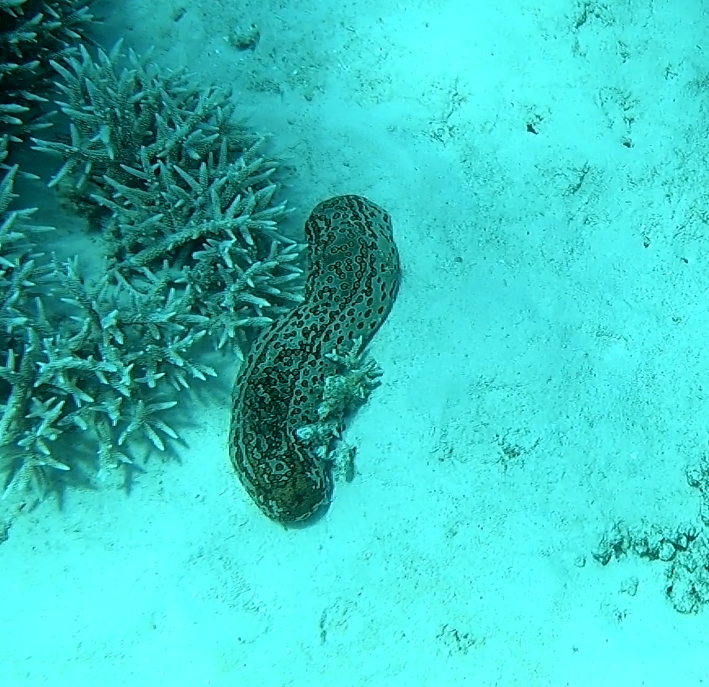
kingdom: Animalia
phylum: Echinodermata
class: Holothuroidea
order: Holothuriida
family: Holothuriidae
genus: Bohadschia
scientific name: Bohadschia argus
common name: Leopardfish
